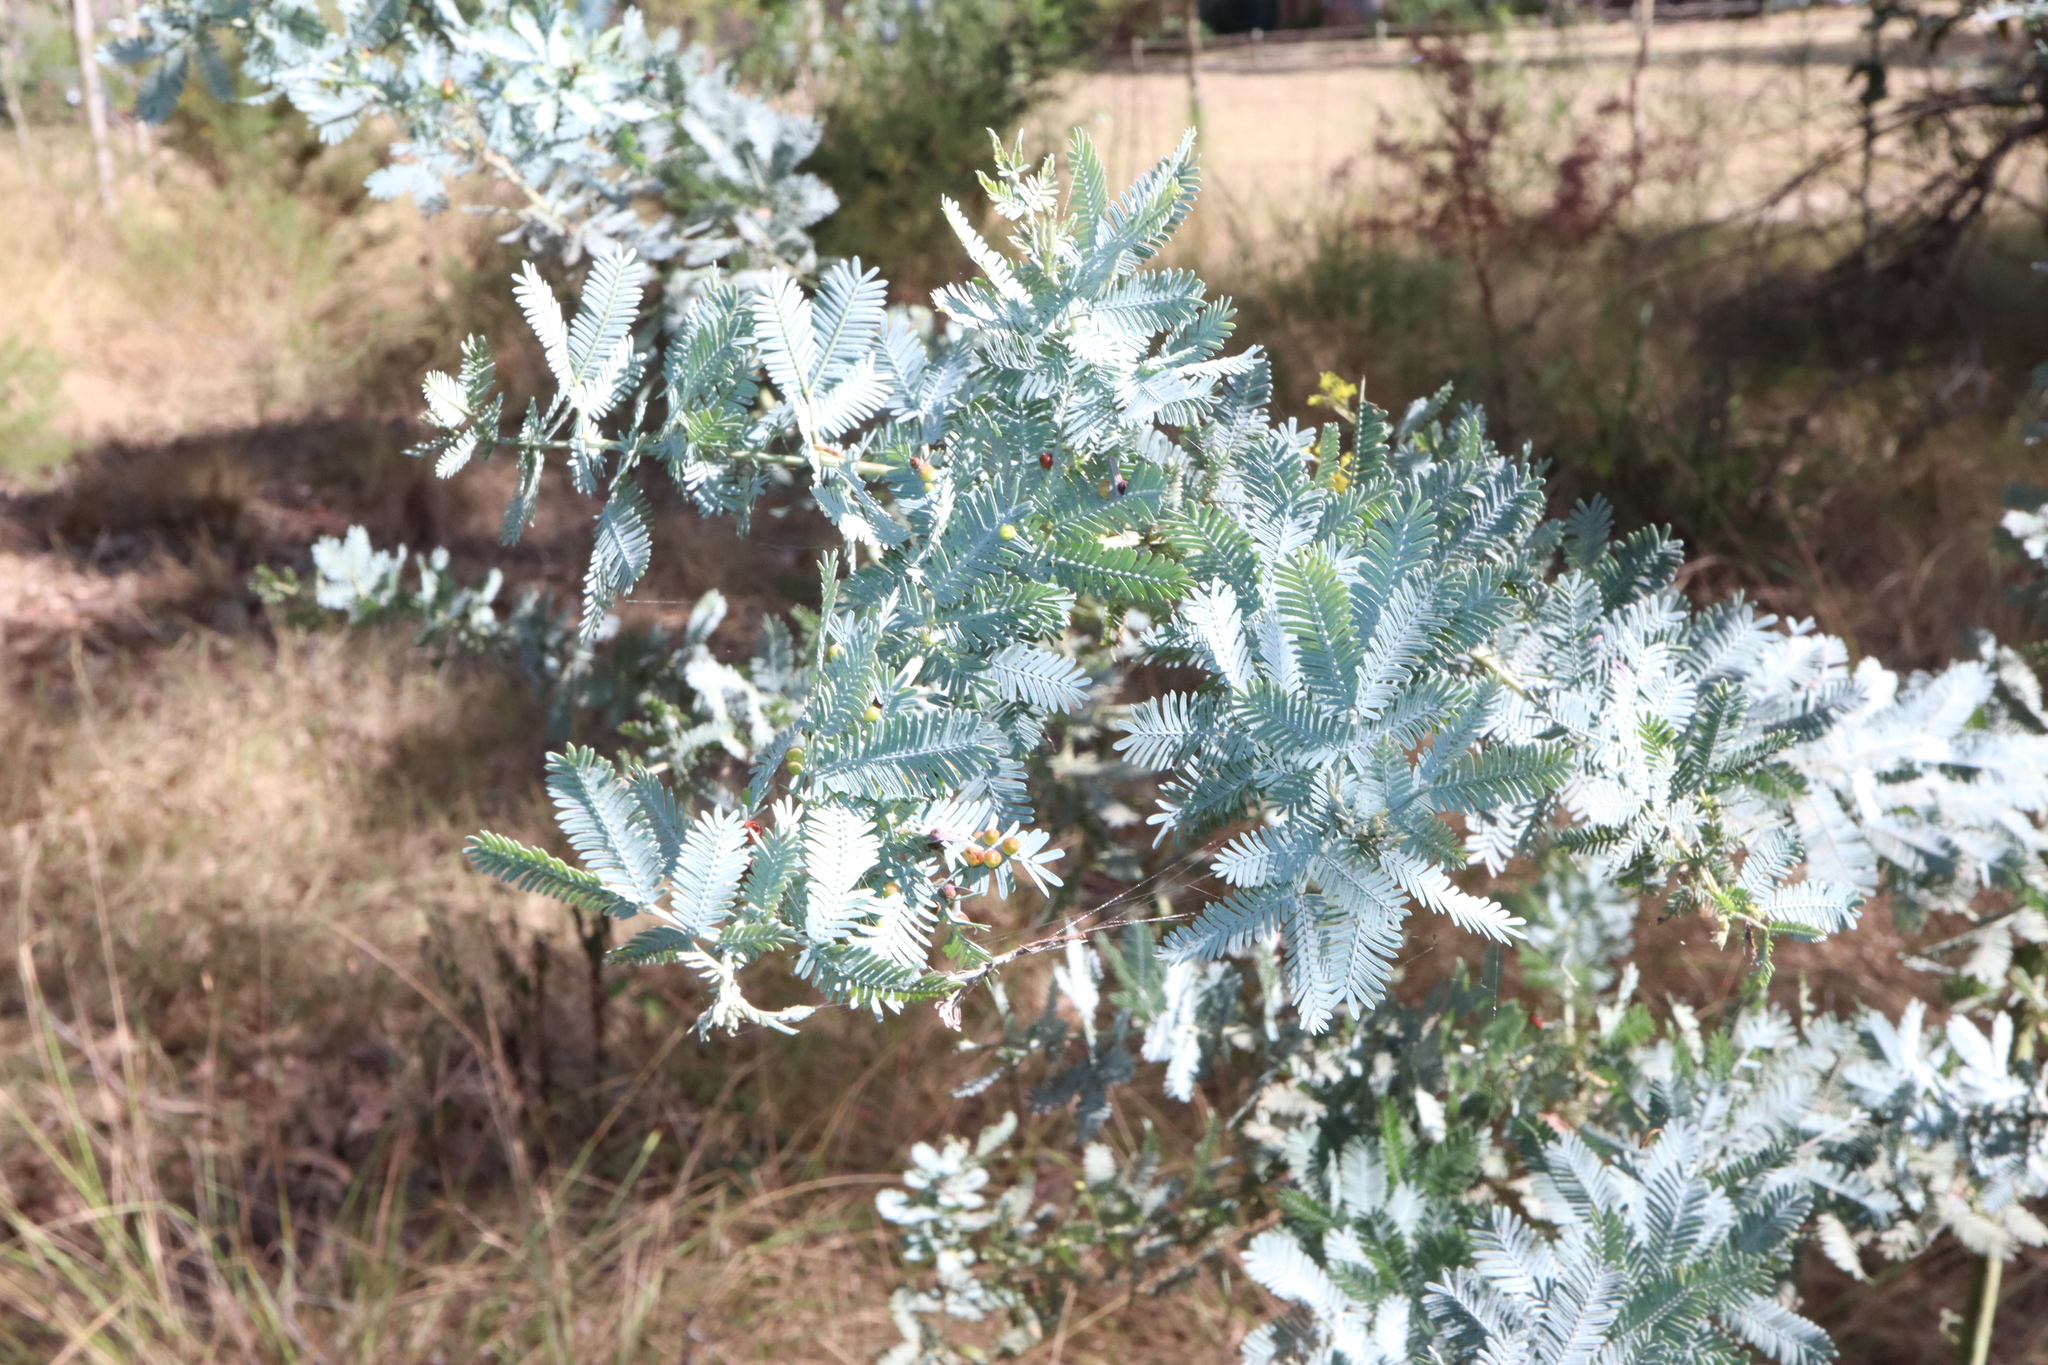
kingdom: Plantae
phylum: Tracheophyta
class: Magnoliopsida
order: Fabales
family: Fabaceae
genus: Acacia
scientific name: Acacia baileyana
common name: Cootamundra wattle
